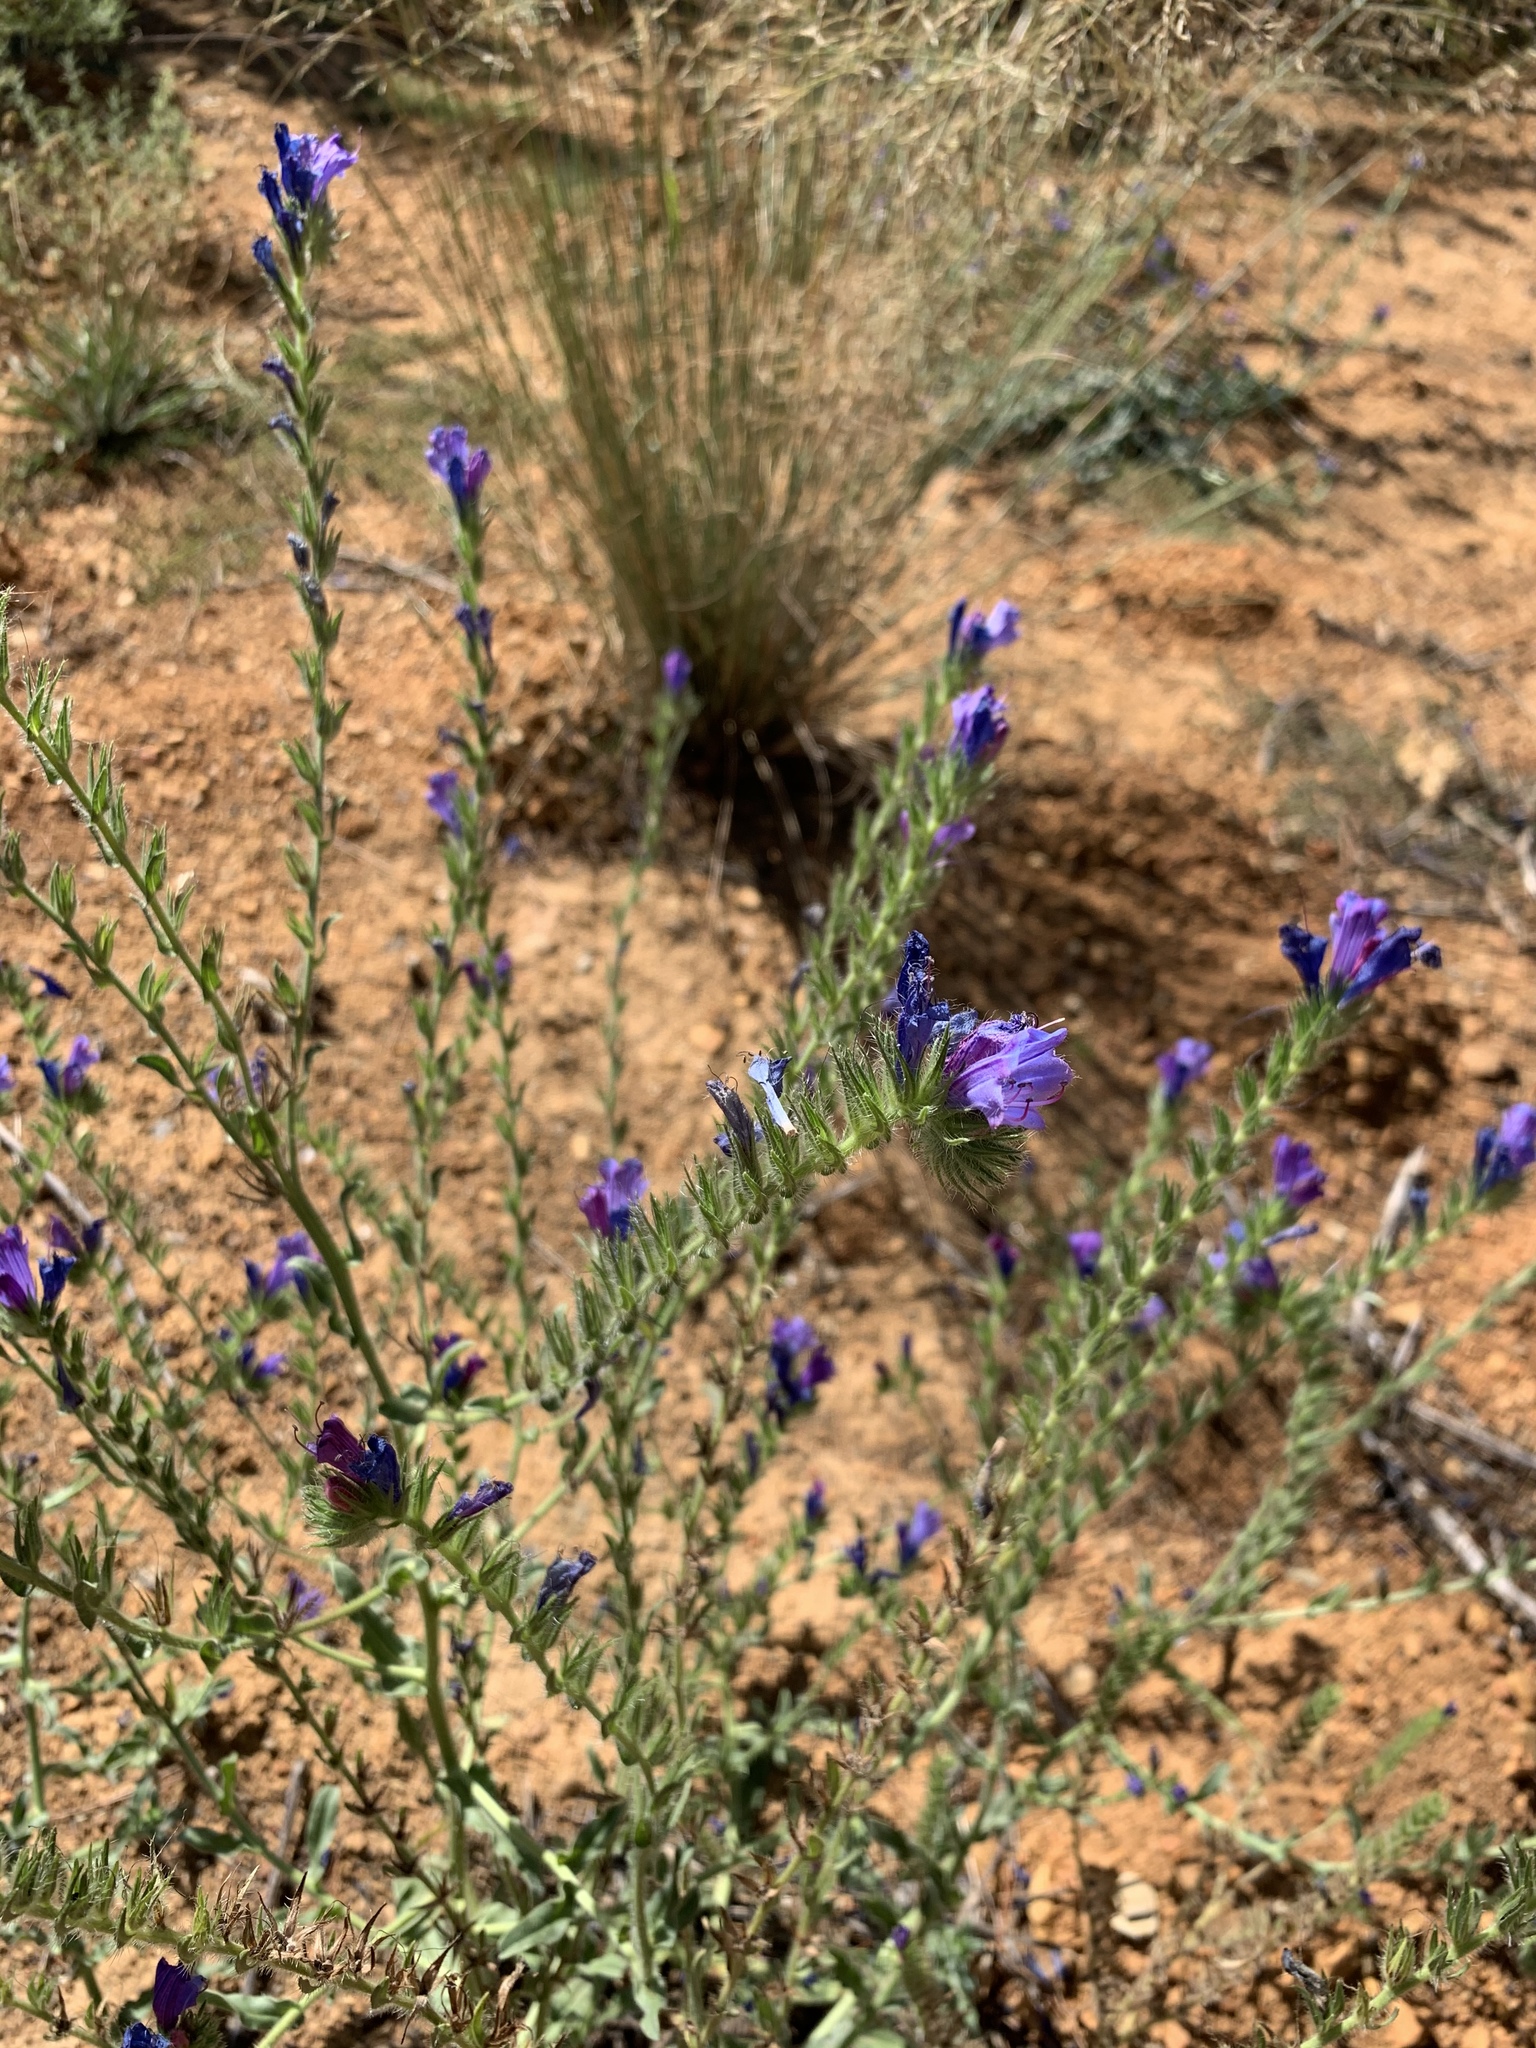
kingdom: Plantae
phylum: Tracheophyta
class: Magnoliopsida
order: Boraginales
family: Boraginaceae
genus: Echium
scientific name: Echium plantagineum
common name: Purple viper's-bugloss
